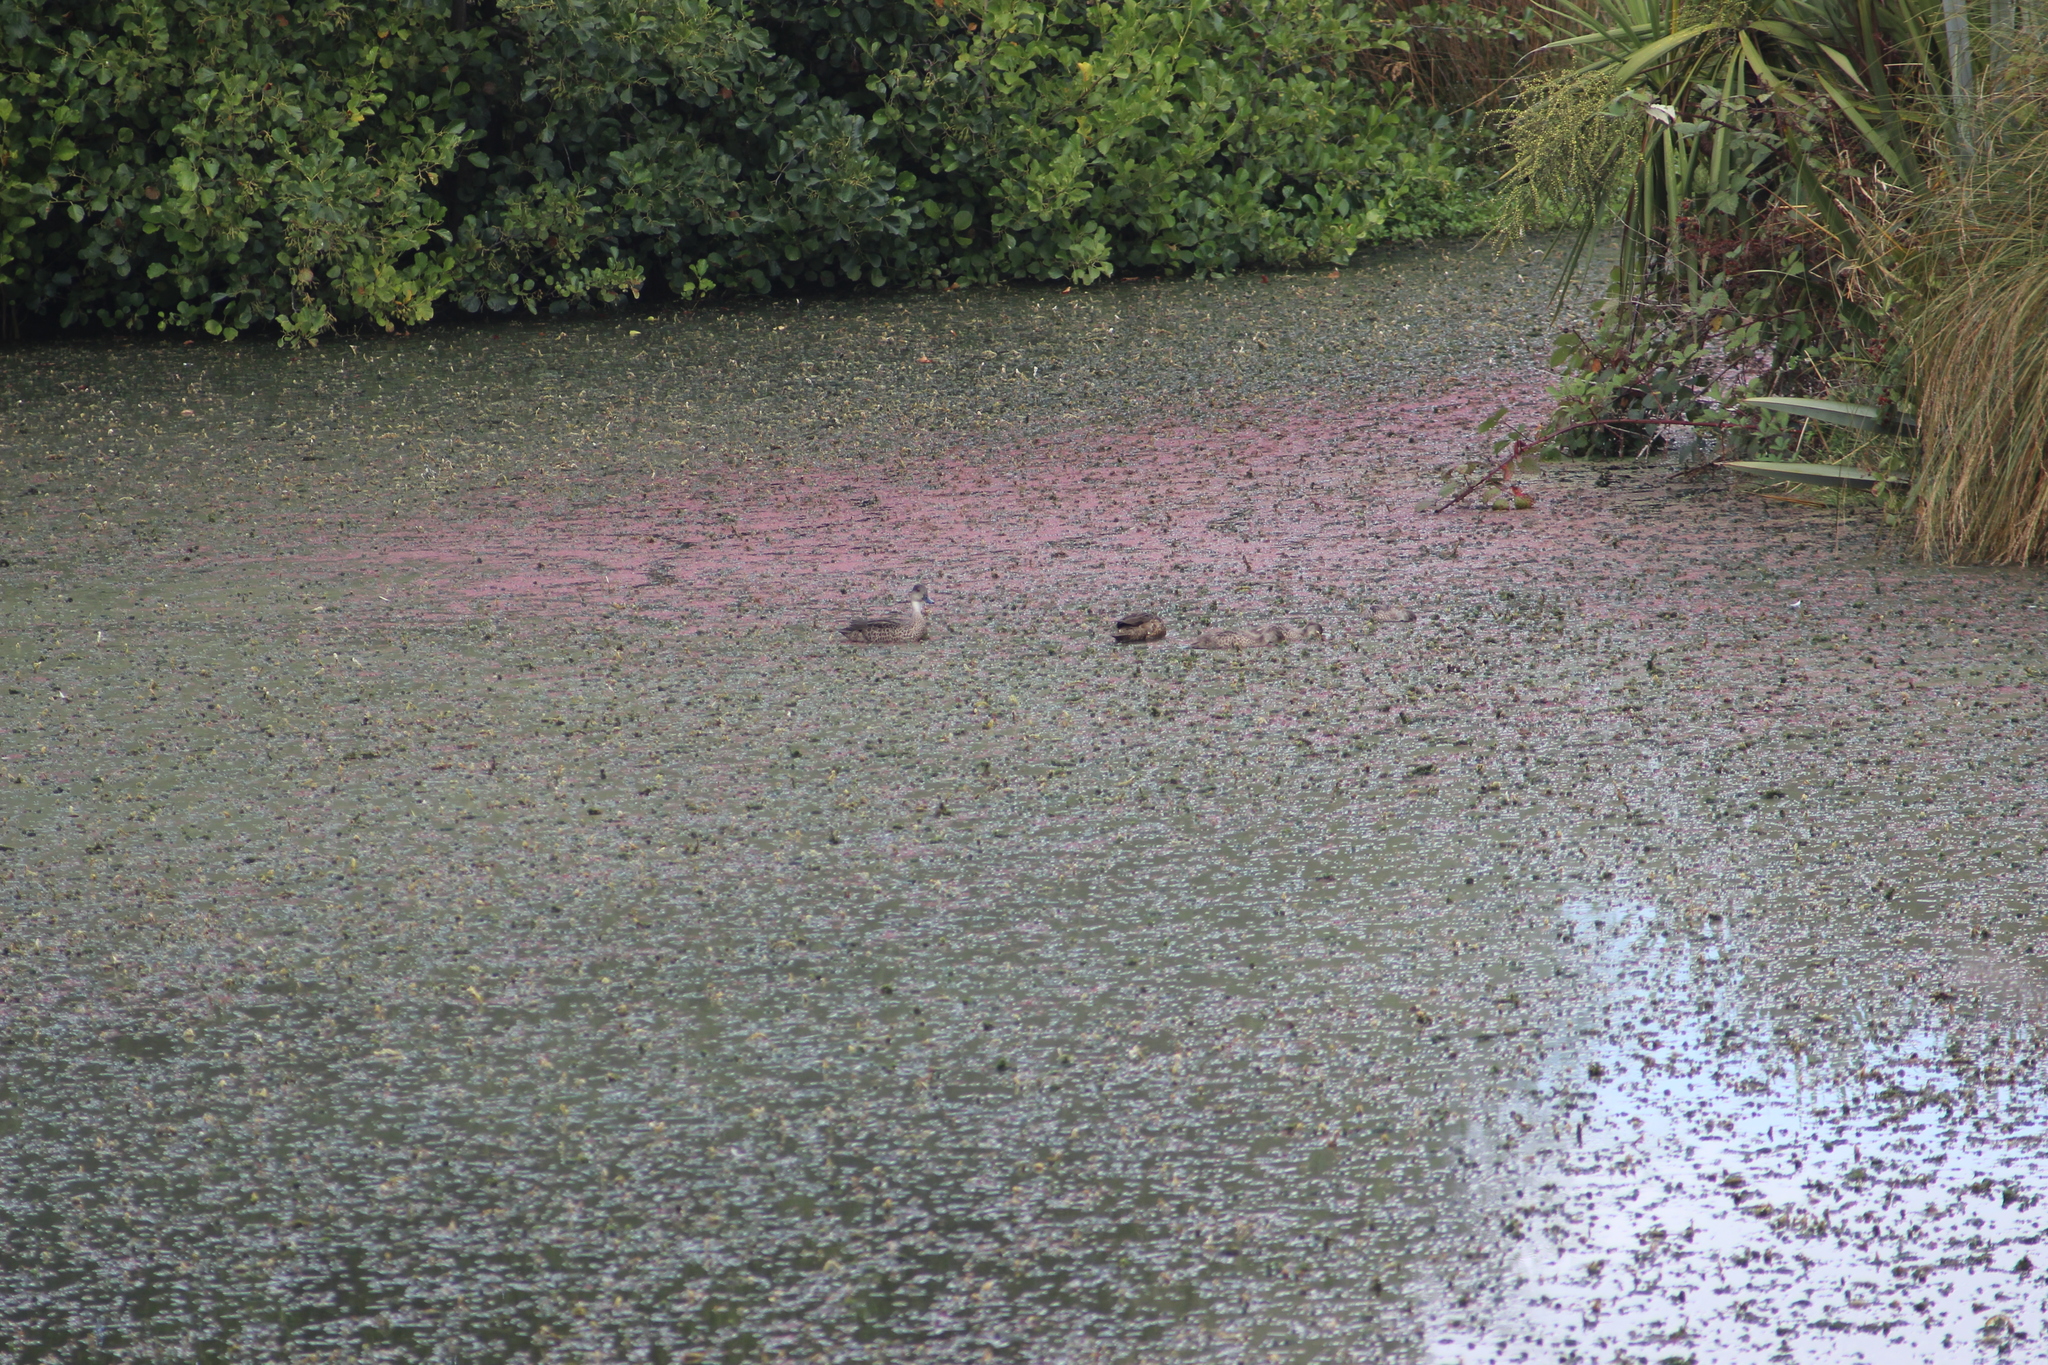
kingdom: Animalia
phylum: Chordata
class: Aves
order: Anseriformes
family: Anatidae
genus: Anas
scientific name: Anas gracilis
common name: Grey teal
